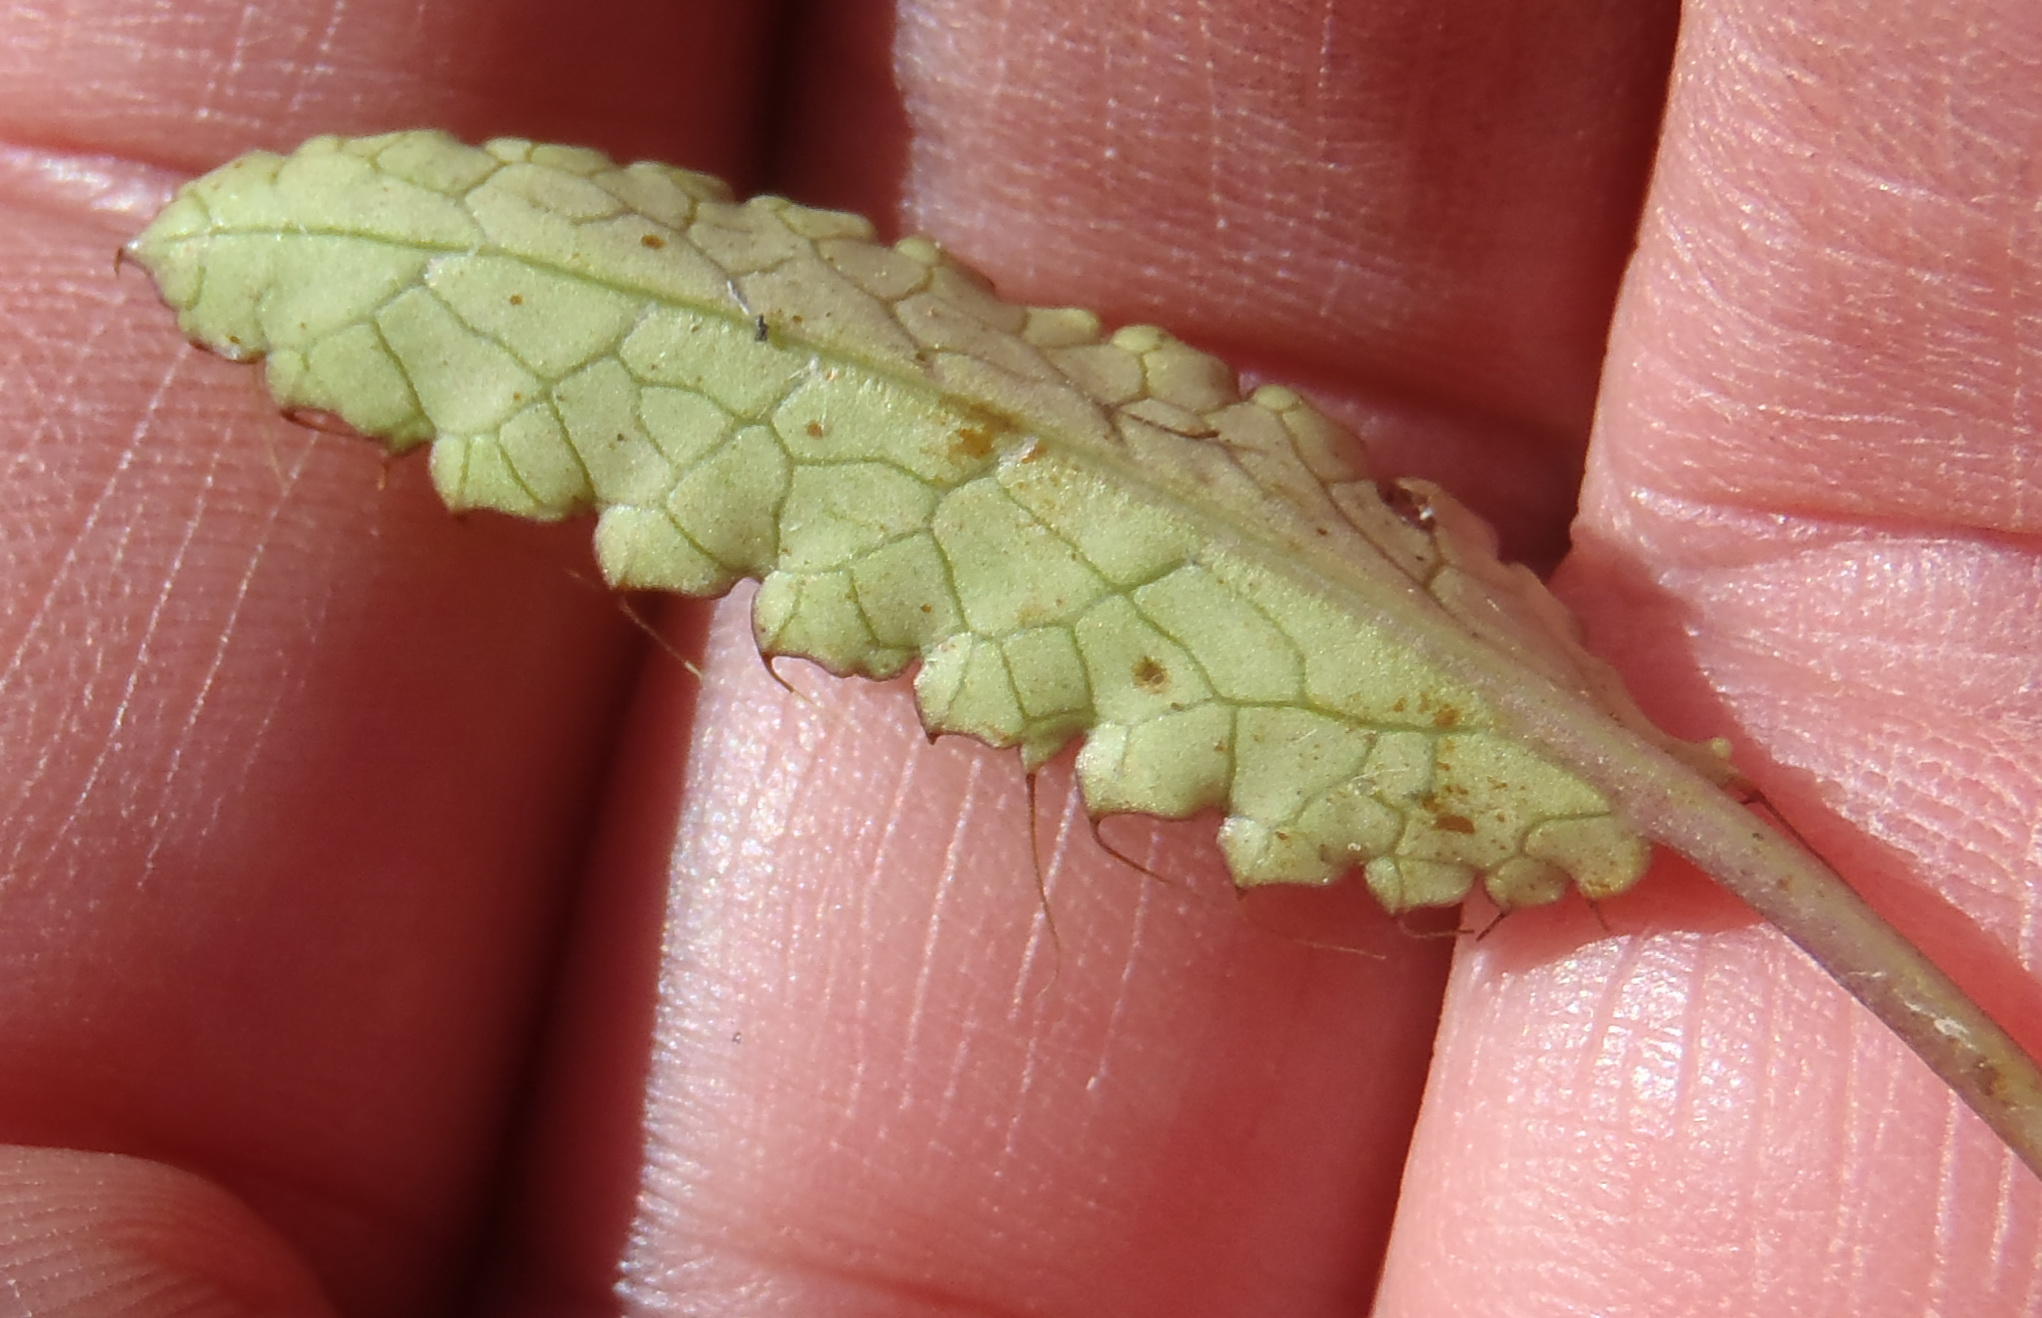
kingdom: Plantae
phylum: Tracheophyta
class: Magnoliopsida
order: Apiales
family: Apiaceae
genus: Alepidea
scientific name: Alepidea delicatula
